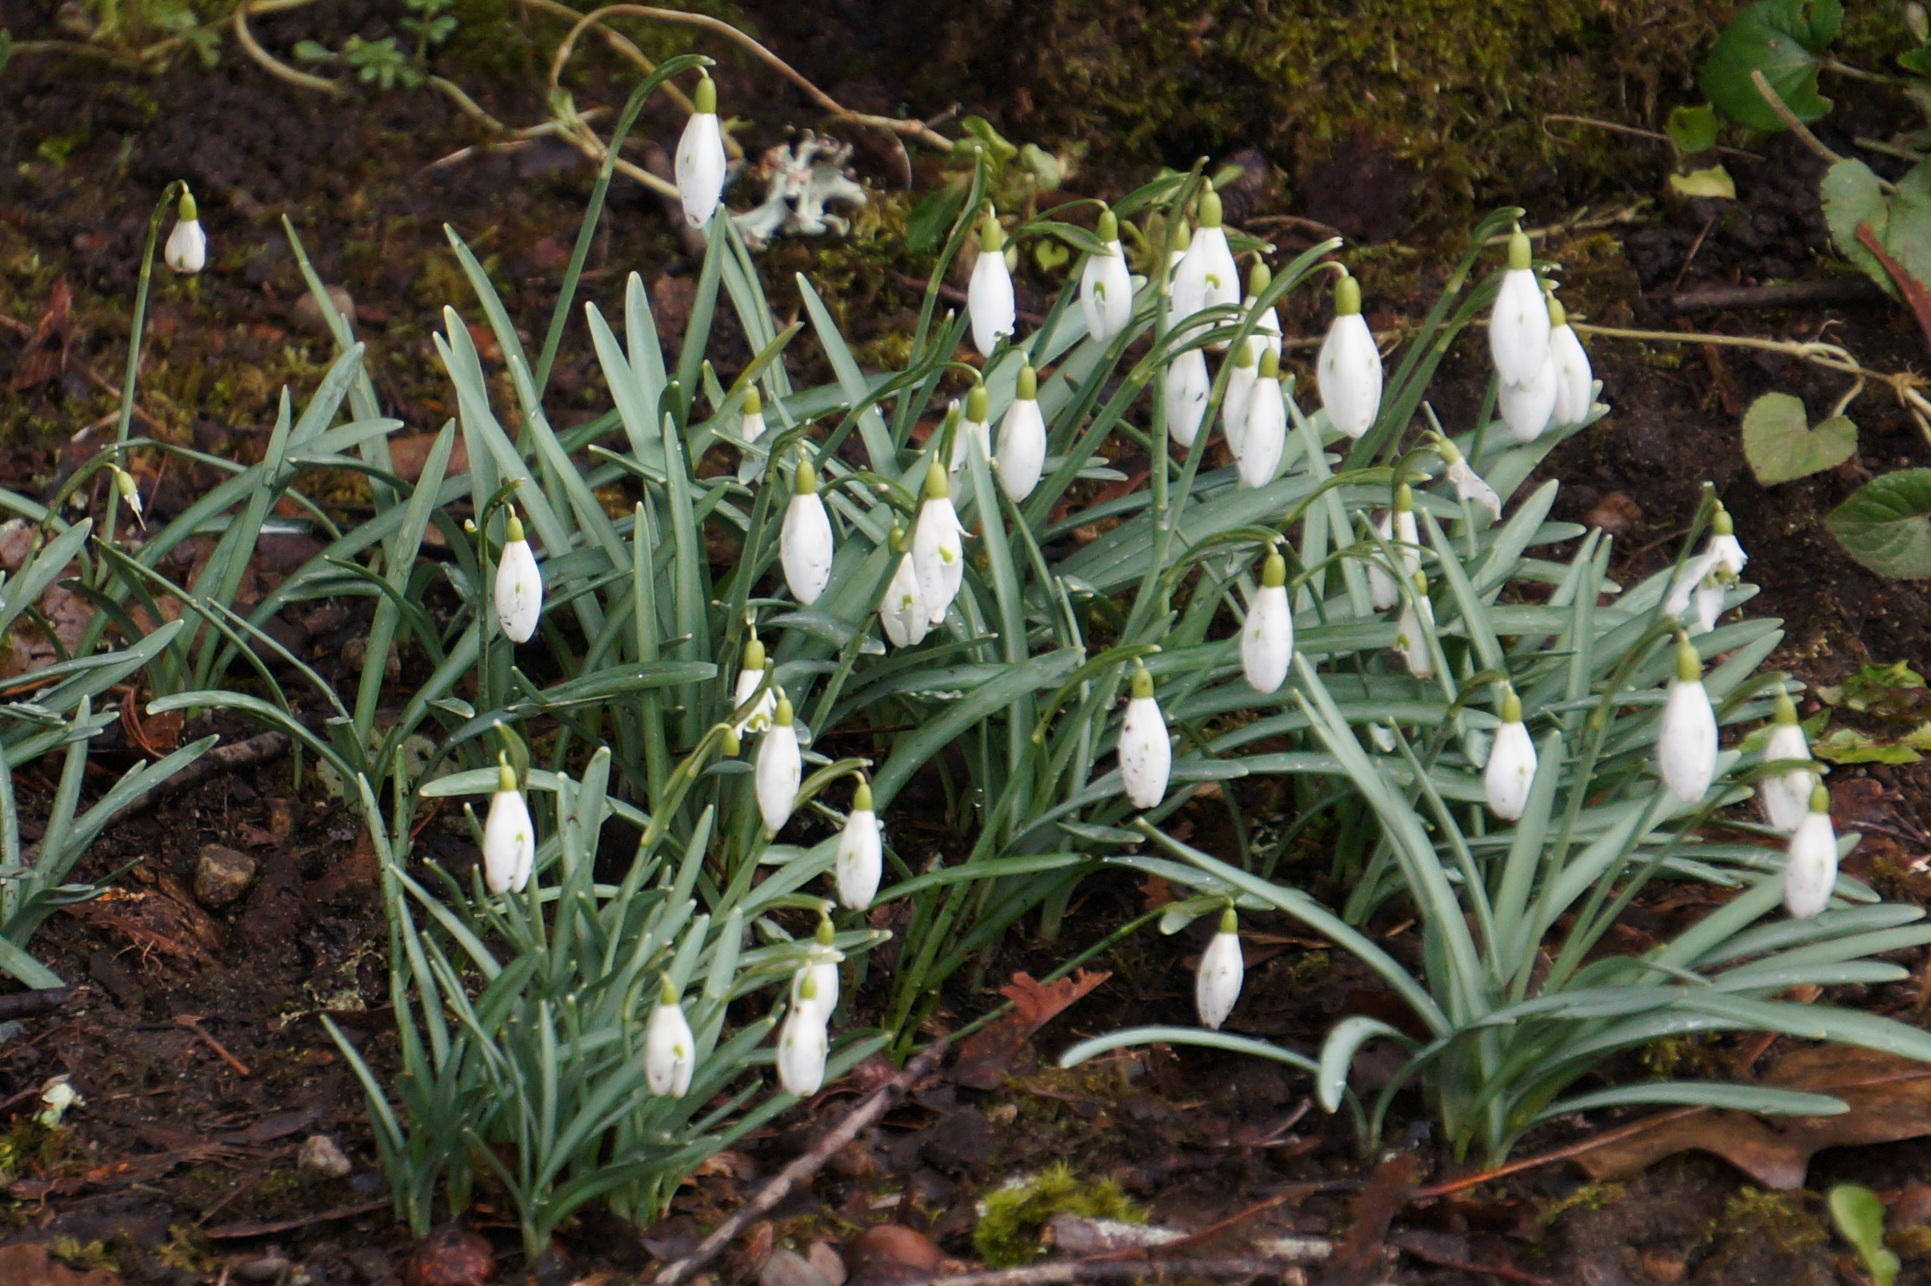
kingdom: Plantae
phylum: Tracheophyta
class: Liliopsida
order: Asparagales
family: Amaryllidaceae
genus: Galanthus
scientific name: Galanthus nivalis
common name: Snowdrop
